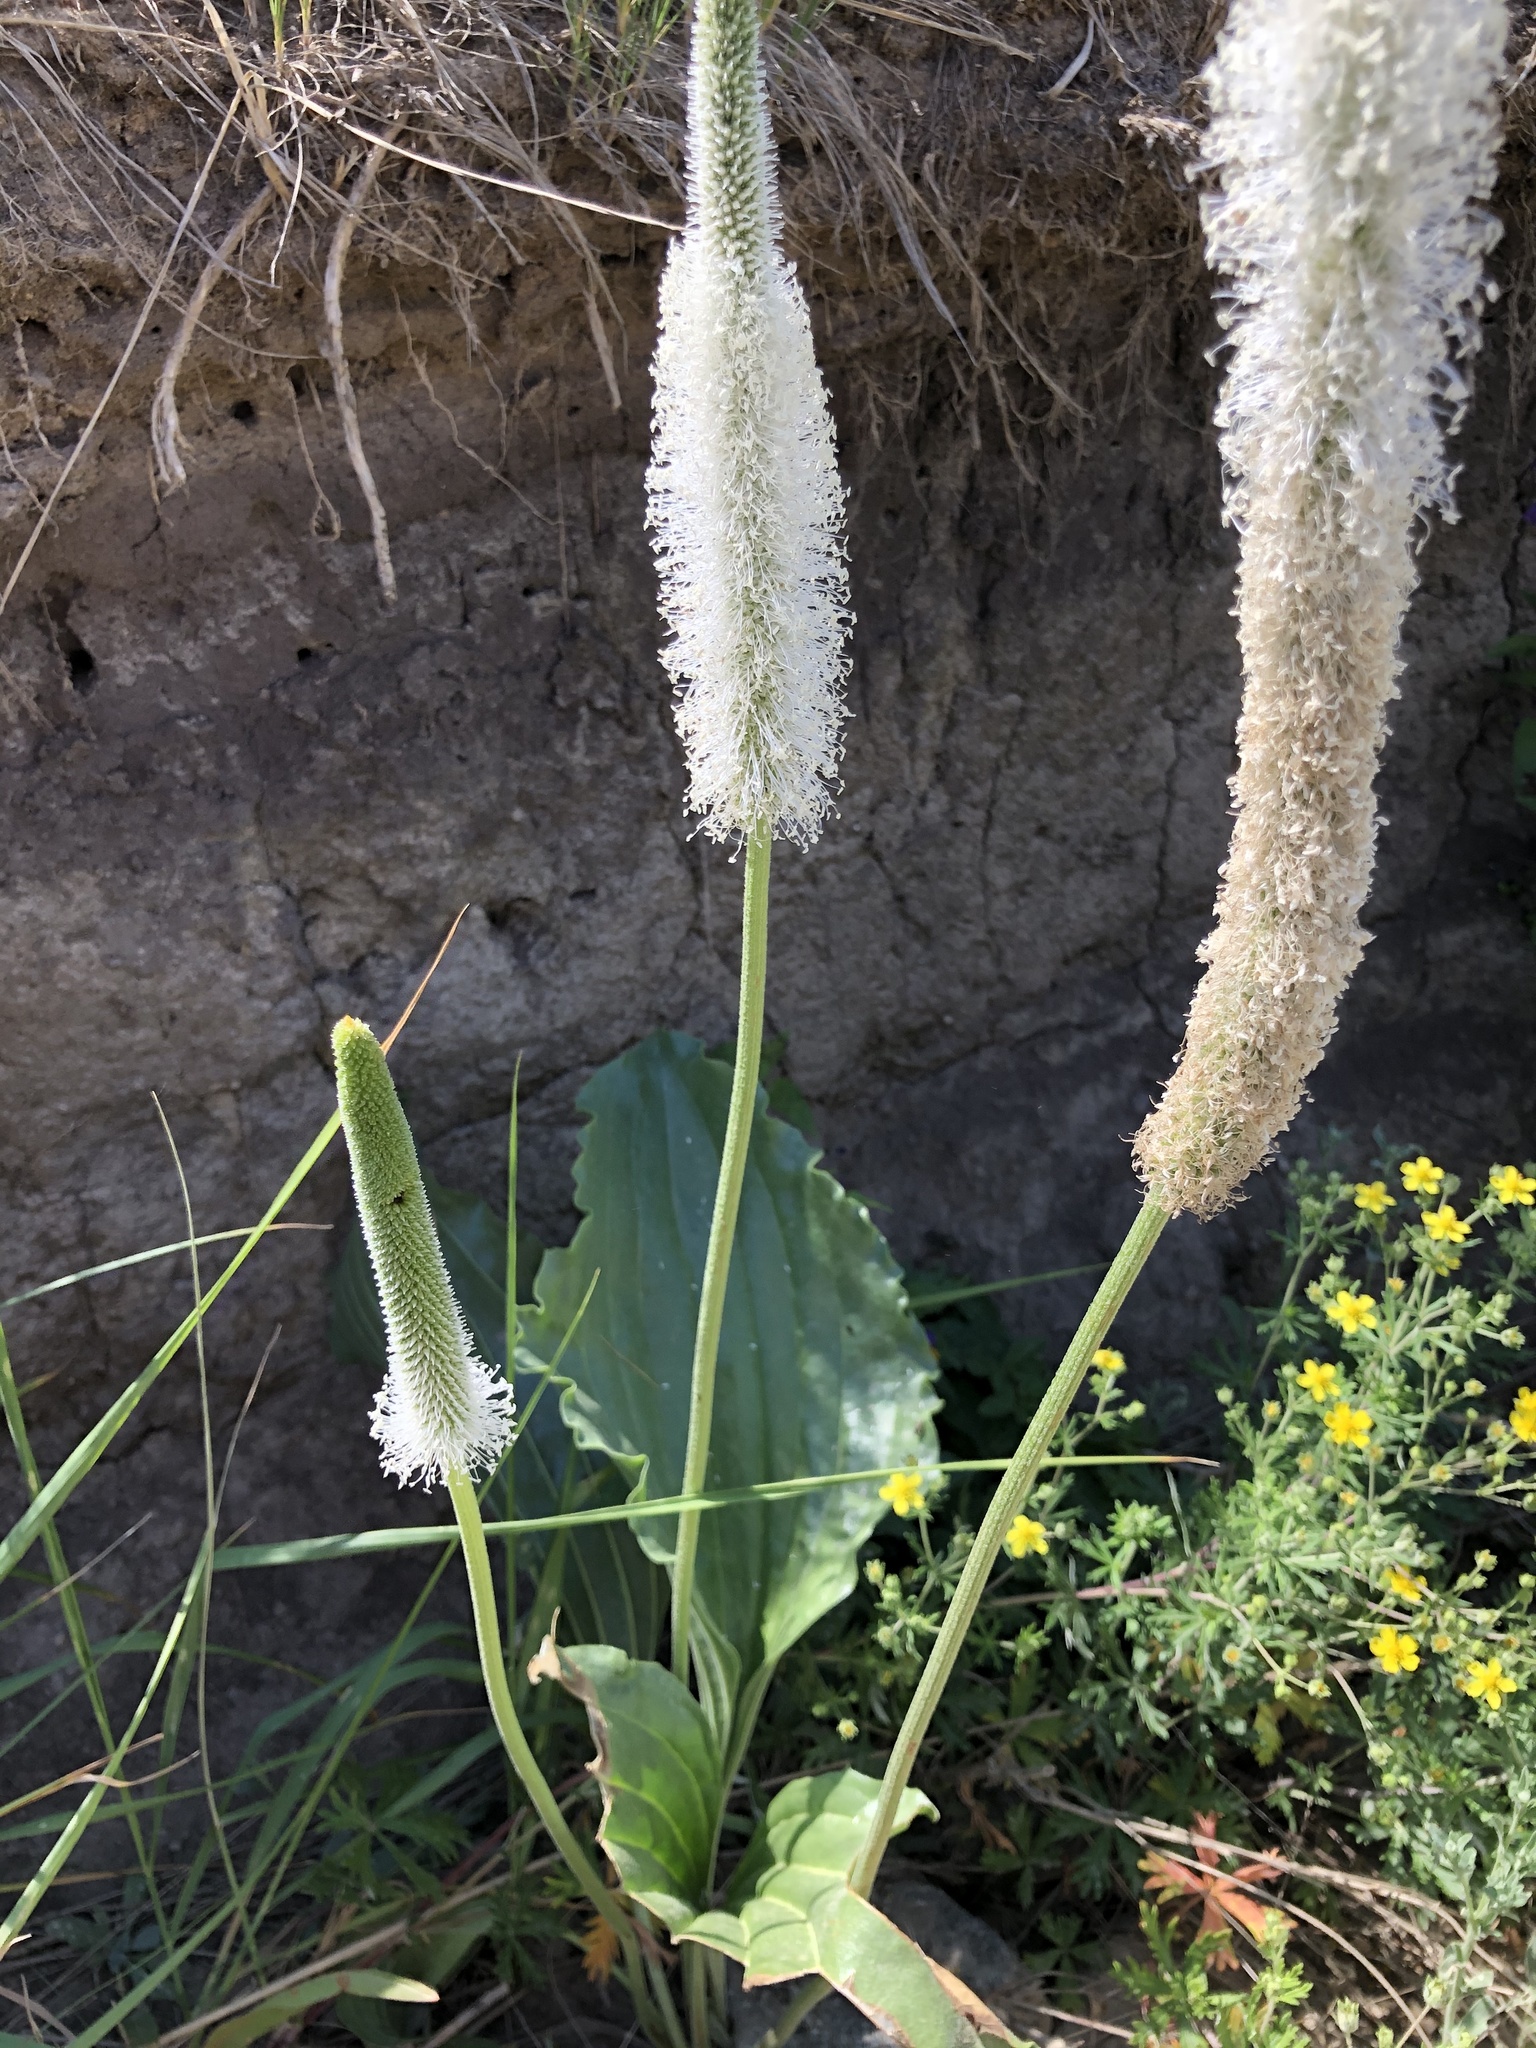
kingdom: Plantae
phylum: Tracheophyta
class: Magnoliopsida
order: Lamiales
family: Plantaginaceae
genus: Plantago
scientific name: Plantago maxima
